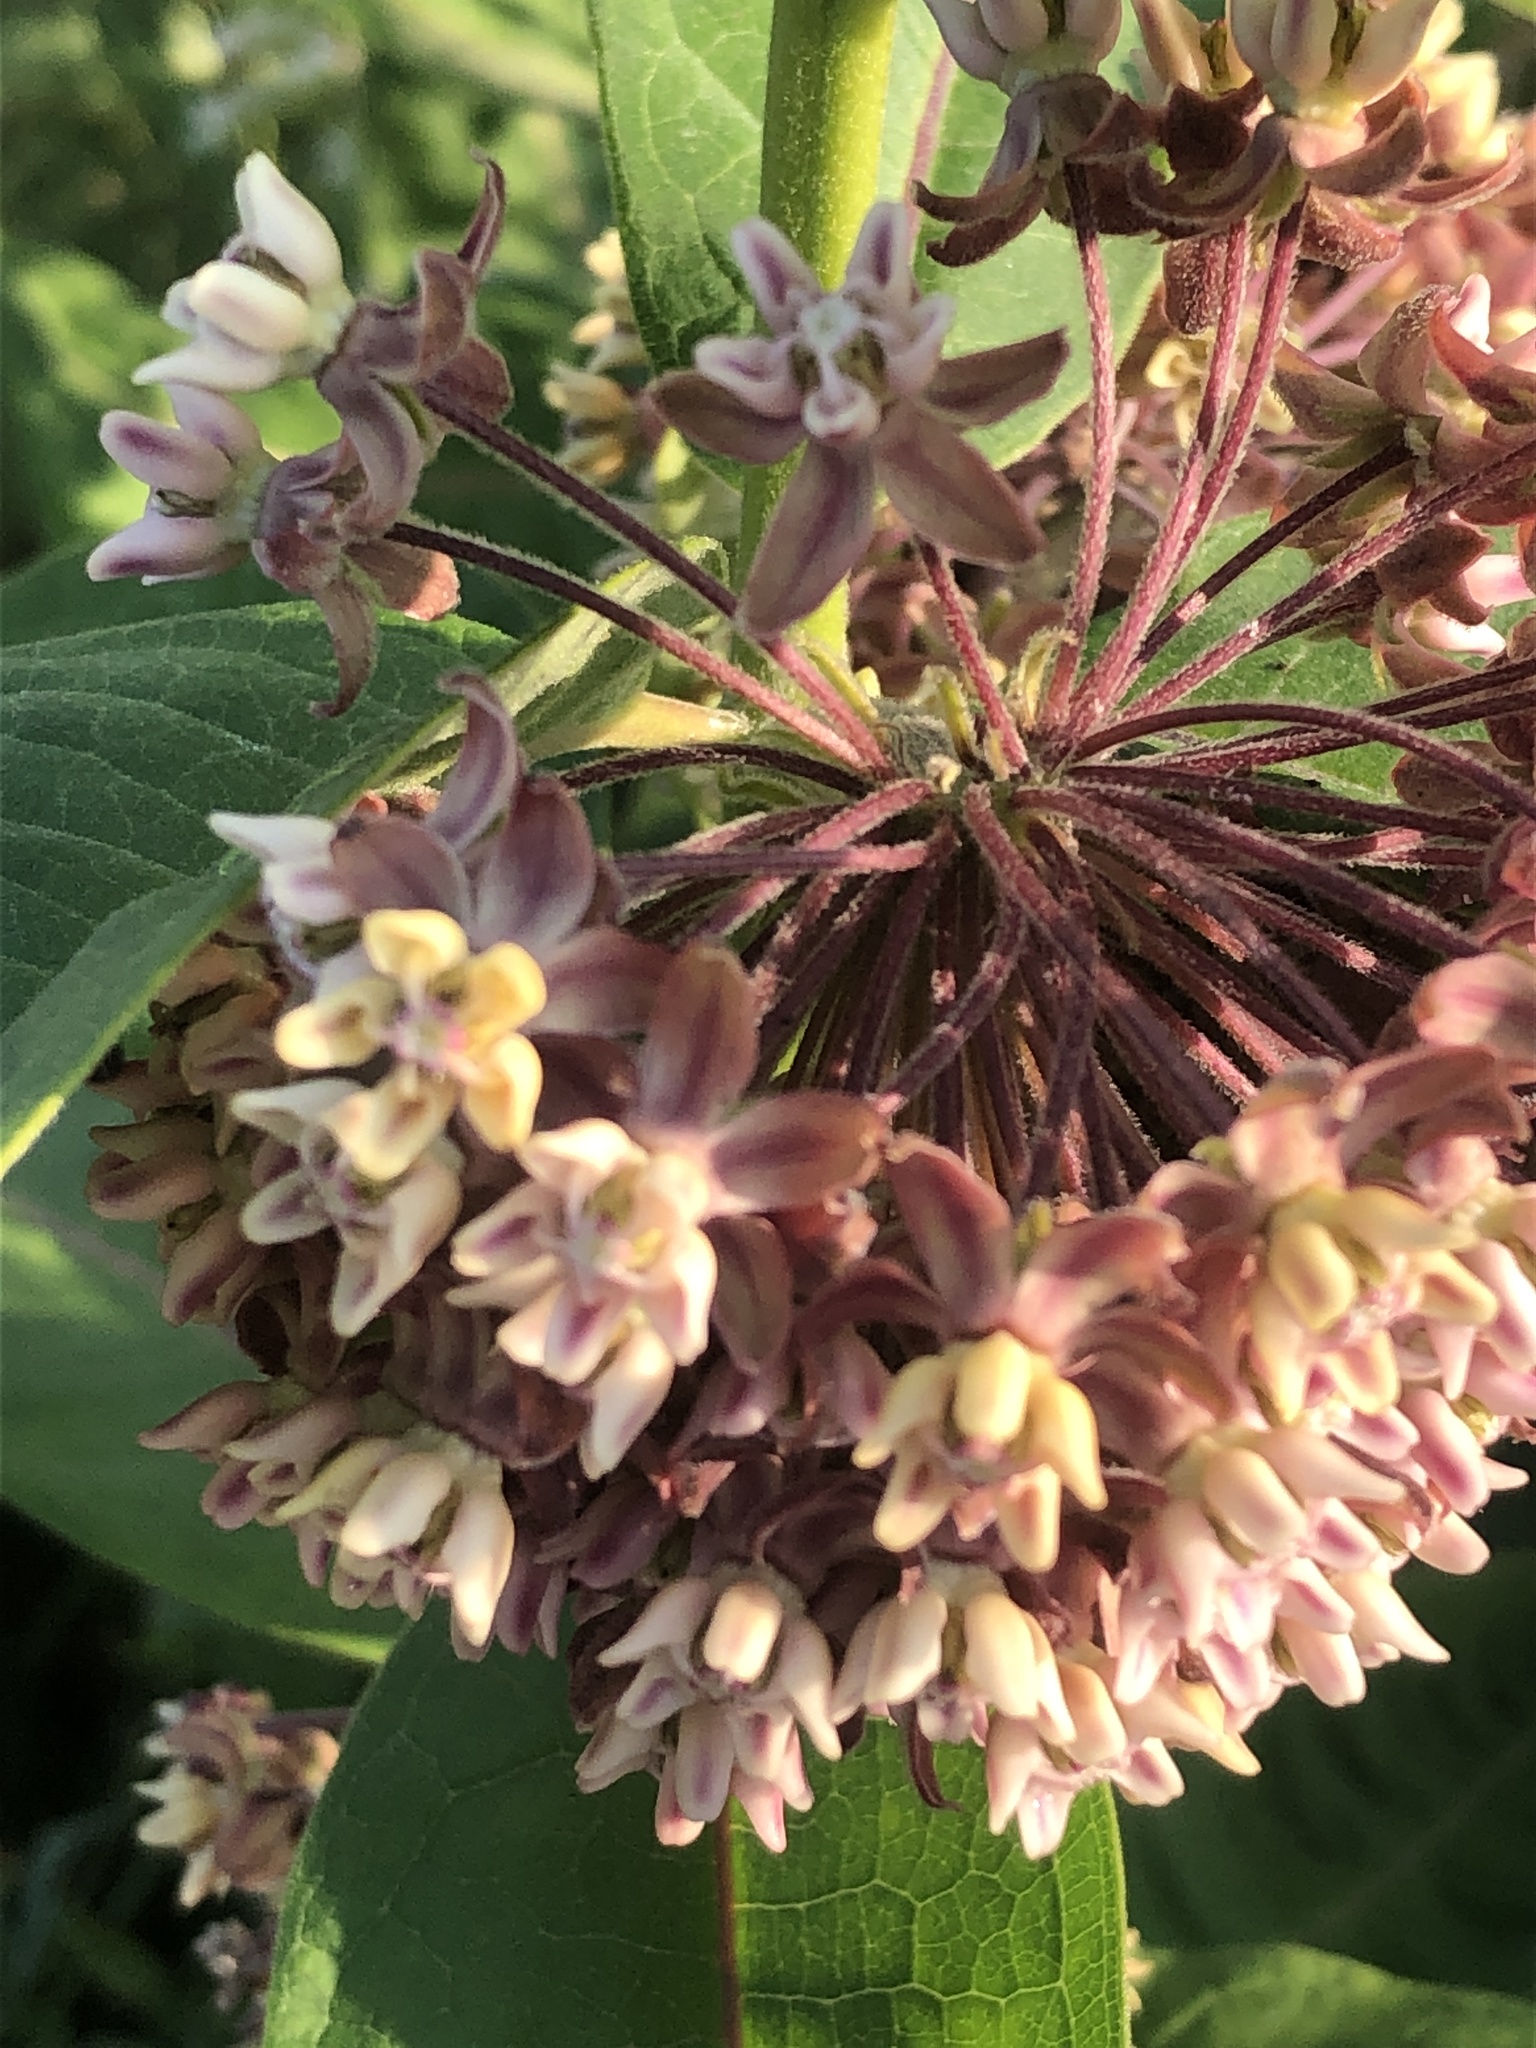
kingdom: Plantae
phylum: Tracheophyta
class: Magnoliopsida
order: Gentianales
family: Apocynaceae
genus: Asclepias
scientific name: Asclepias syriaca
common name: Common milkweed
